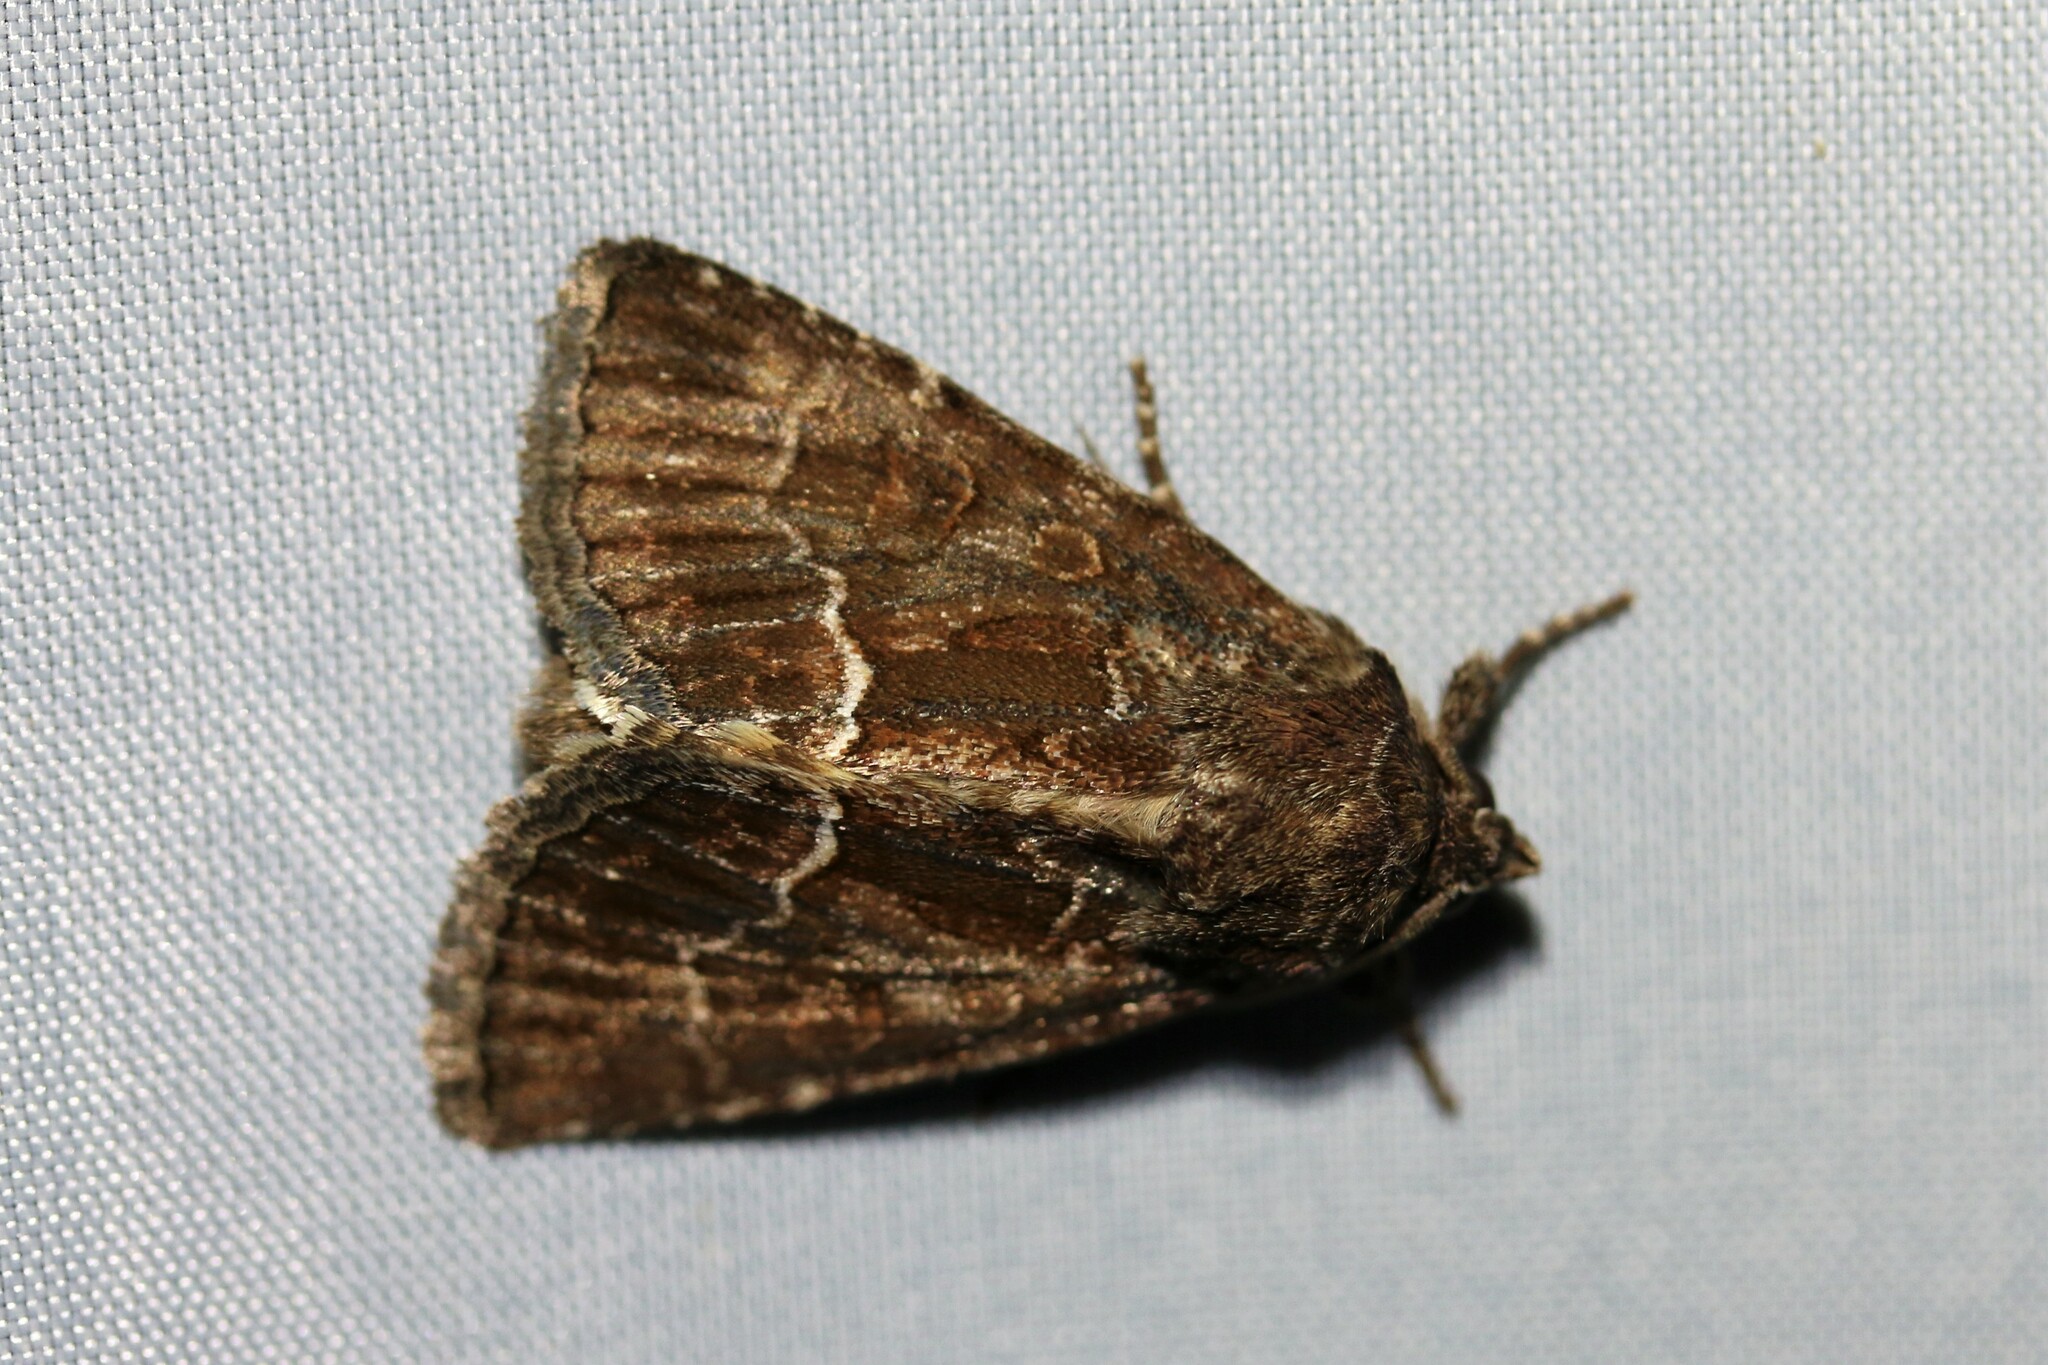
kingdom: Animalia
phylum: Arthropoda
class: Insecta
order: Lepidoptera
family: Noctuidae
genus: Thalpophila
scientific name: Thalpophila matura
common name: Straw underwing
